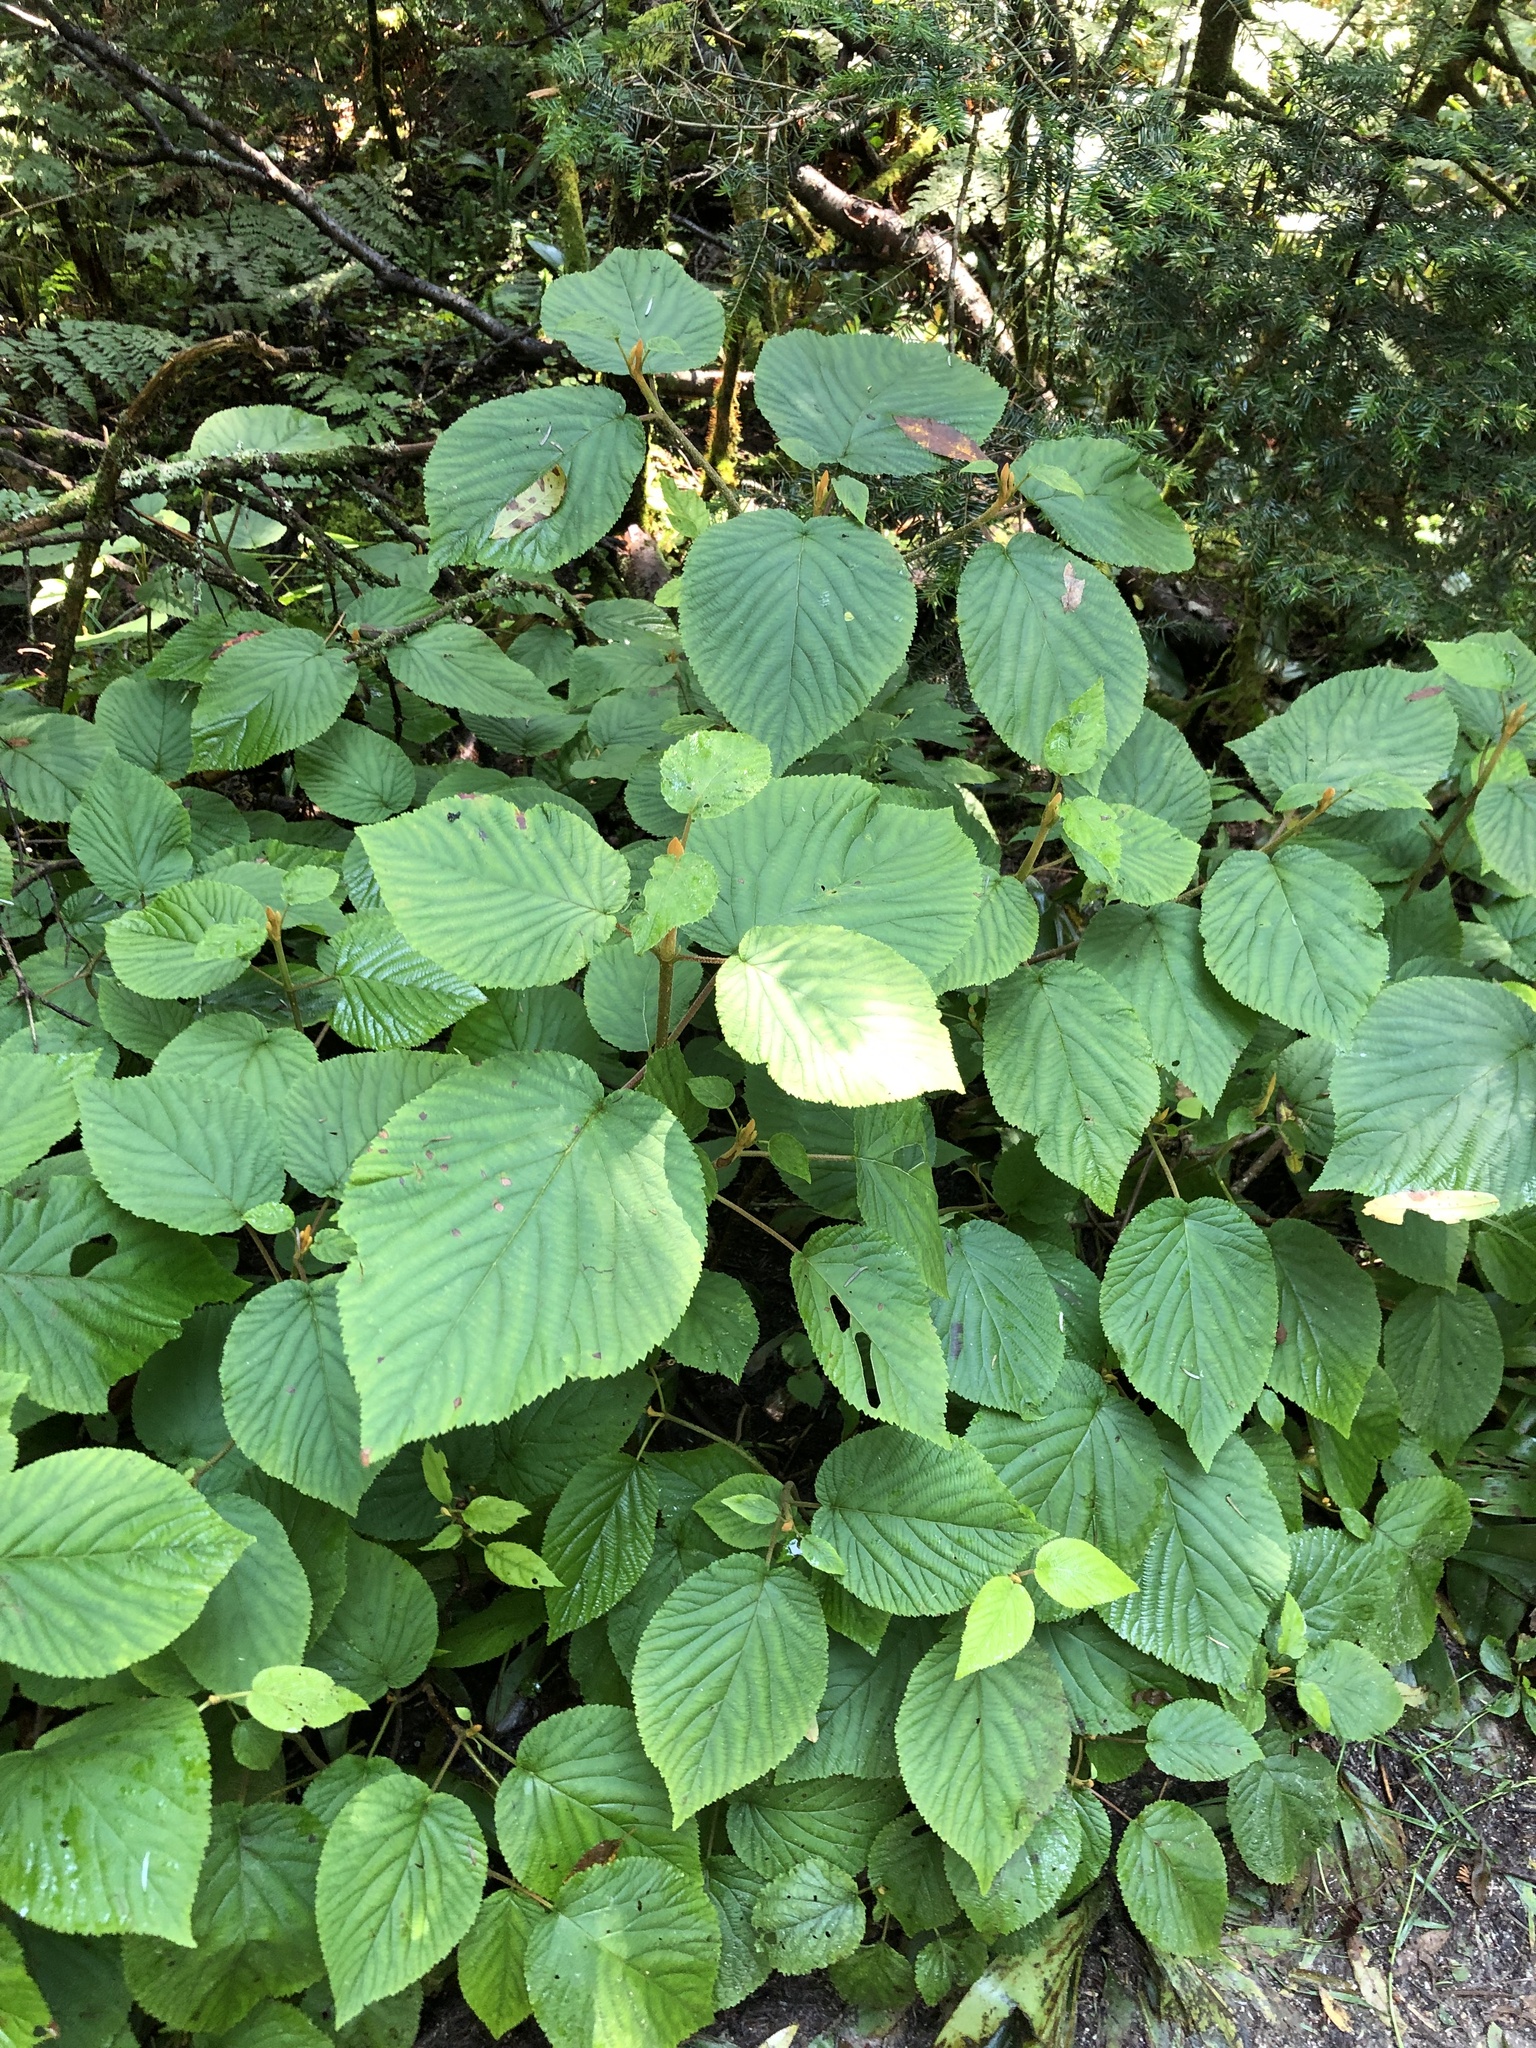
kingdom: Plantae
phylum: Tracheophyta
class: Magnoliopsida
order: Dipsacales
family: Viburnaceae
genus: Viburnum
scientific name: Viburnum lantanoides
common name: Hobblebush
